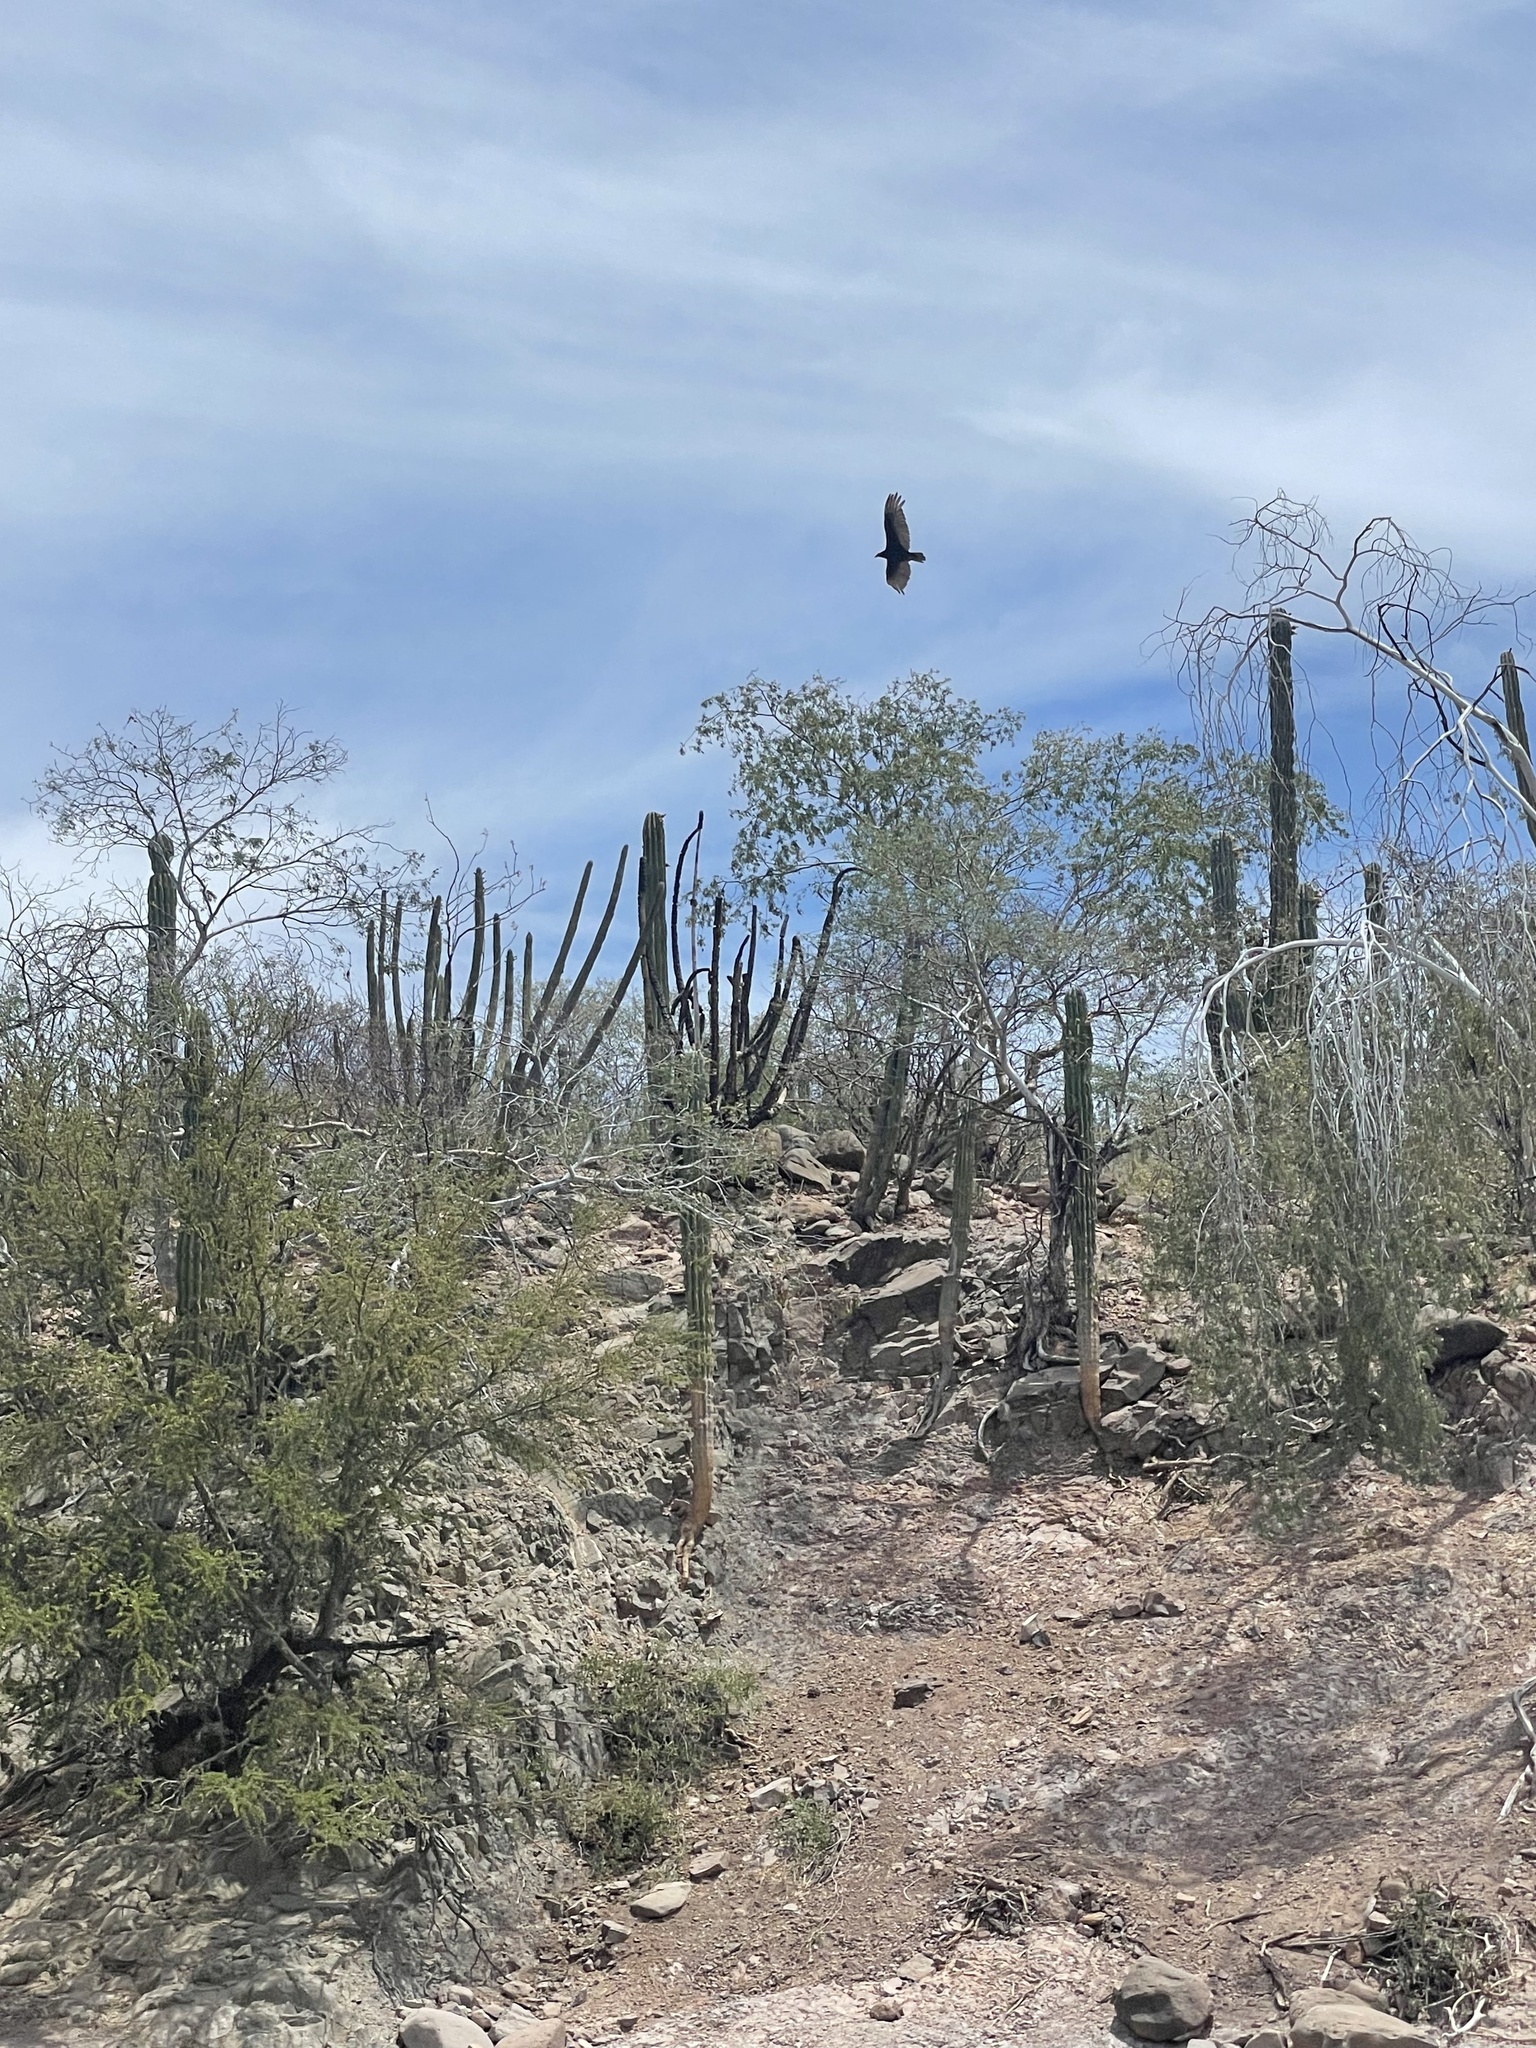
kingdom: Animalia
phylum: Chordata
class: Aves
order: Accipitriformes
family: Cathartidae
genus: Cathartes
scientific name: Cathartes aura
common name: Turkey vulture
